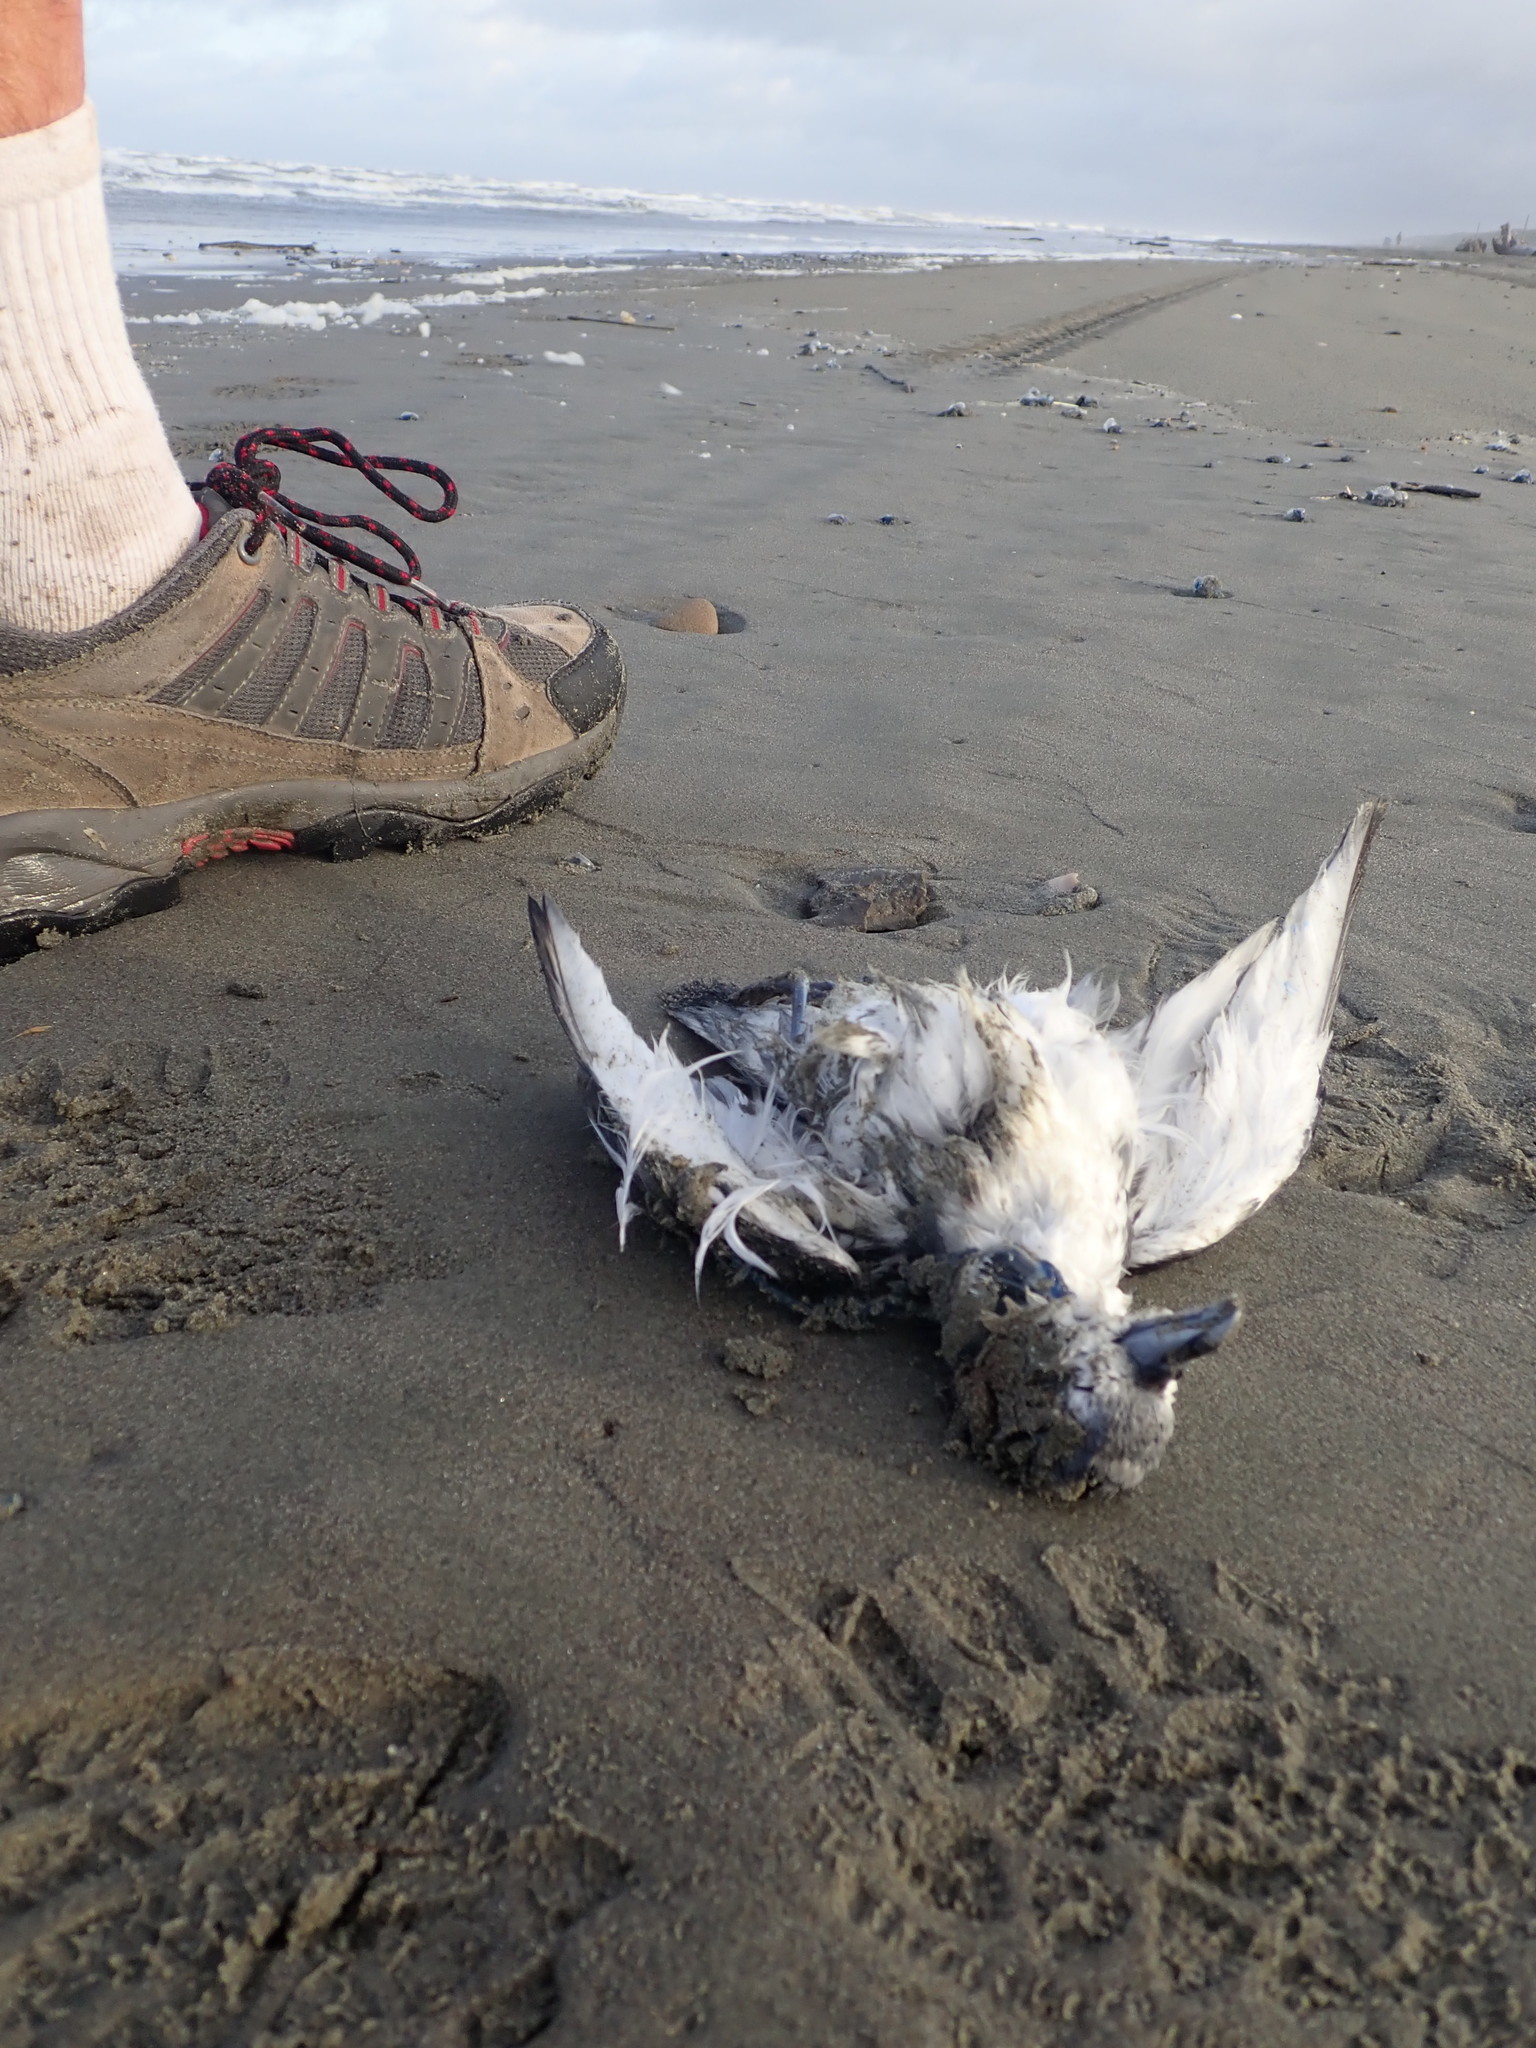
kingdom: Animalia
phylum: Chordata
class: Aves
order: Procellariiformes
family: Procellariidae
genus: Pachyptila
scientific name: Pachyptila turtur
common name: Fairy prion
